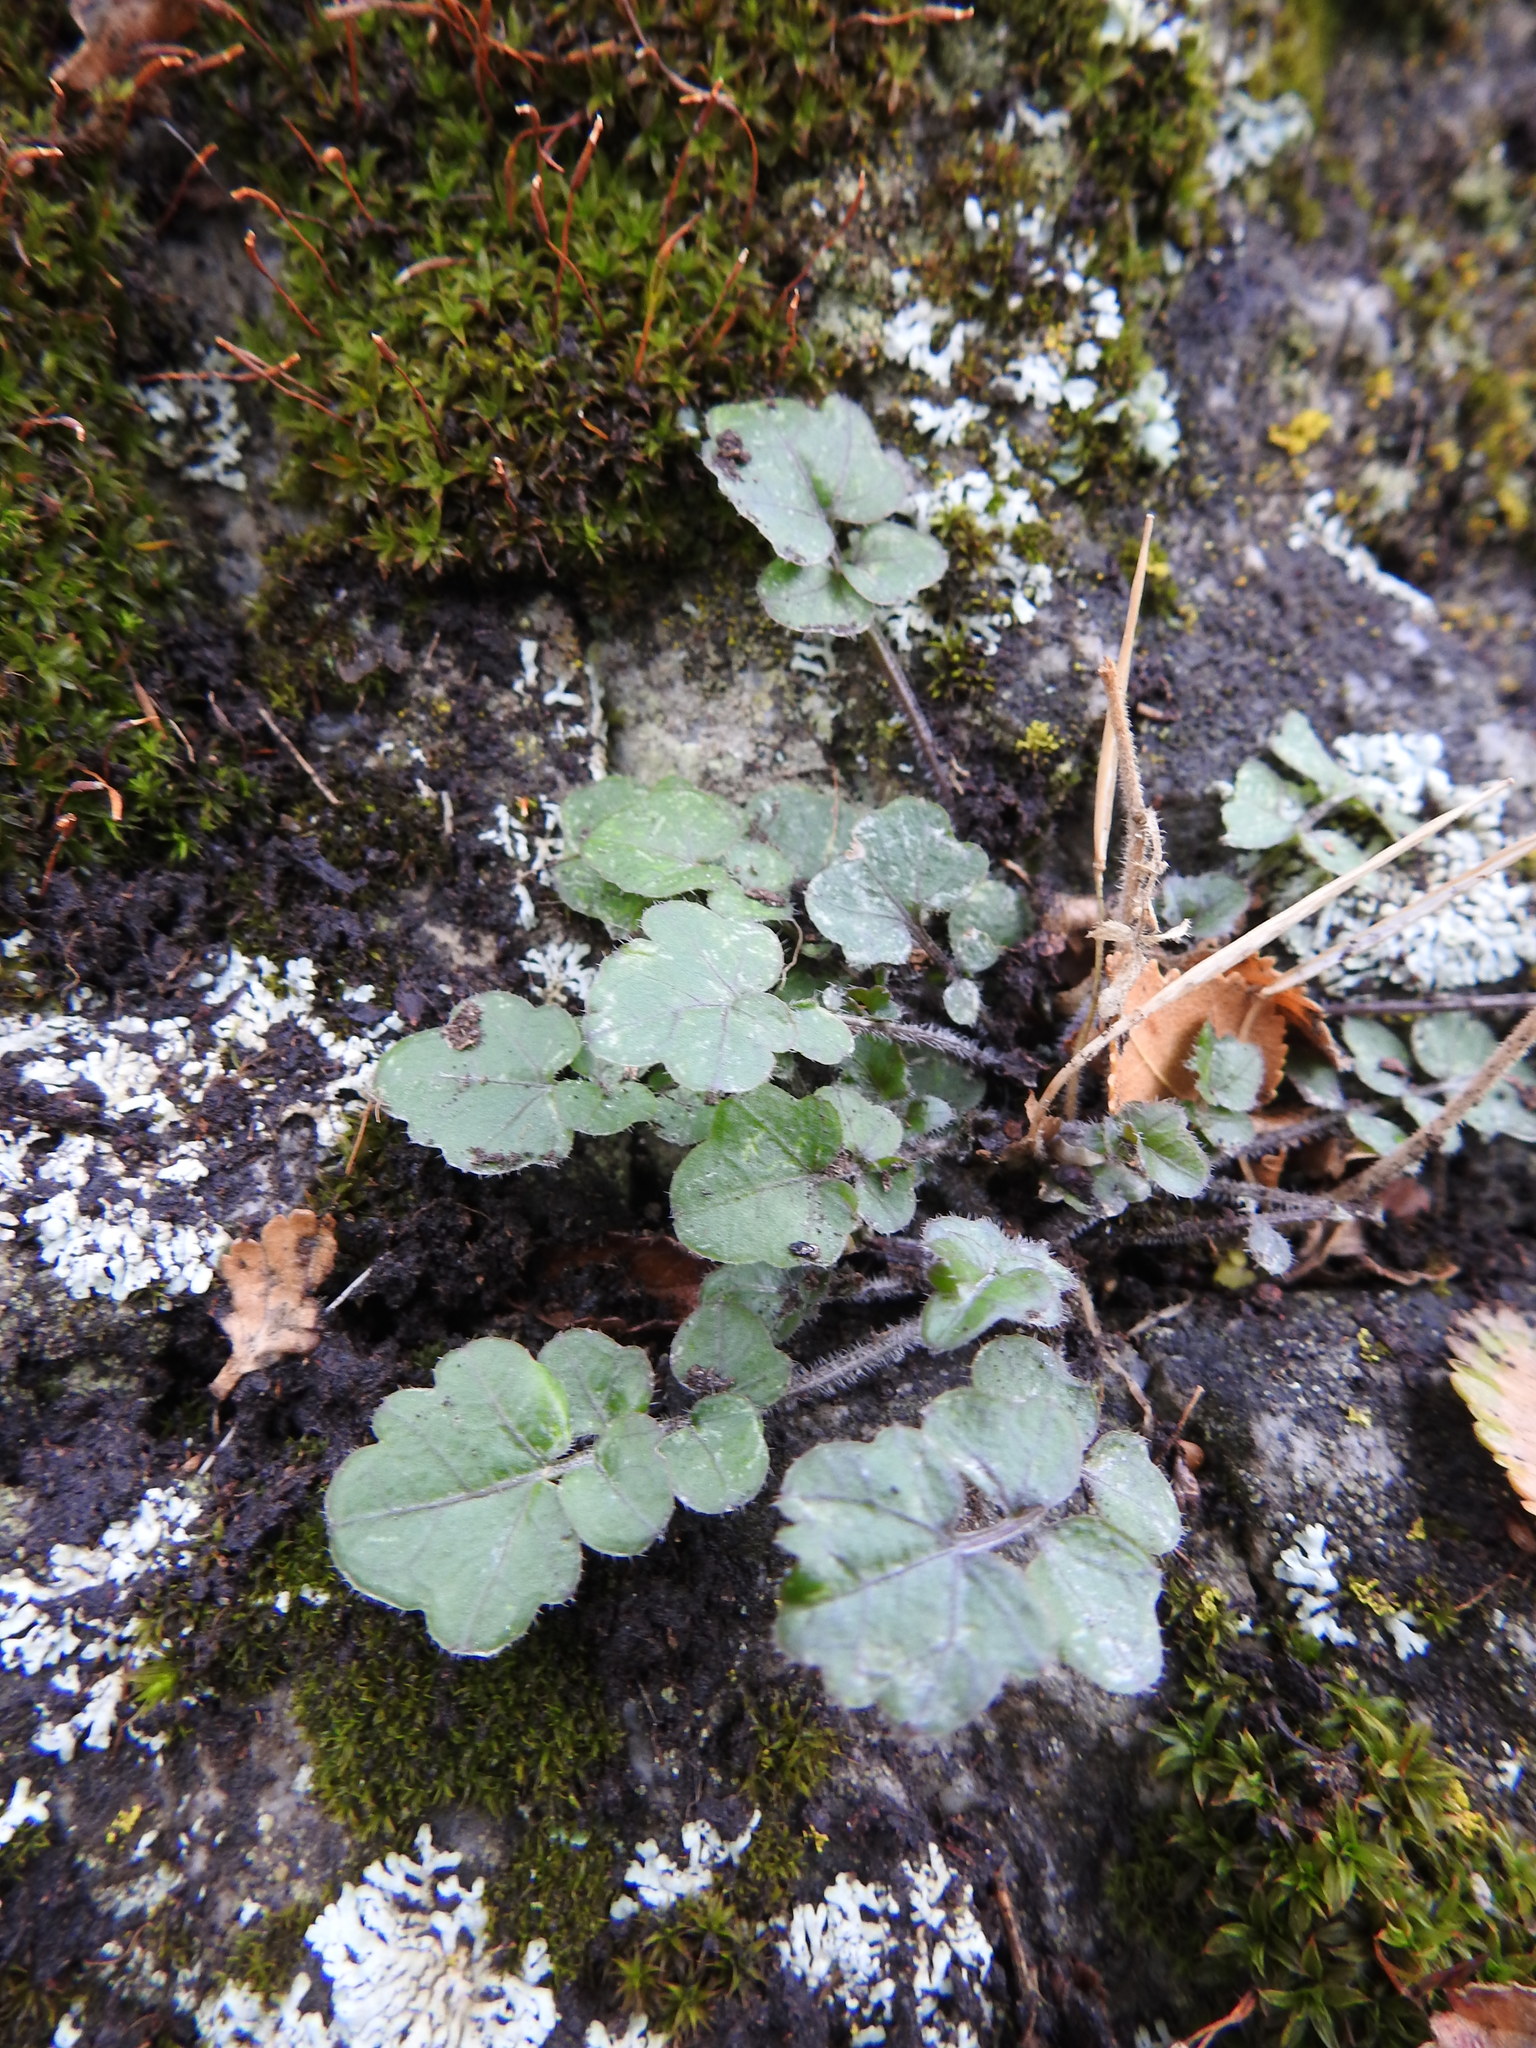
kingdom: Plantae
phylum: Tracheophyta
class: Magnoliopsida
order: Brassicales
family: Brassicaceae
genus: Cardamine
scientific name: Cardamine glacialis
